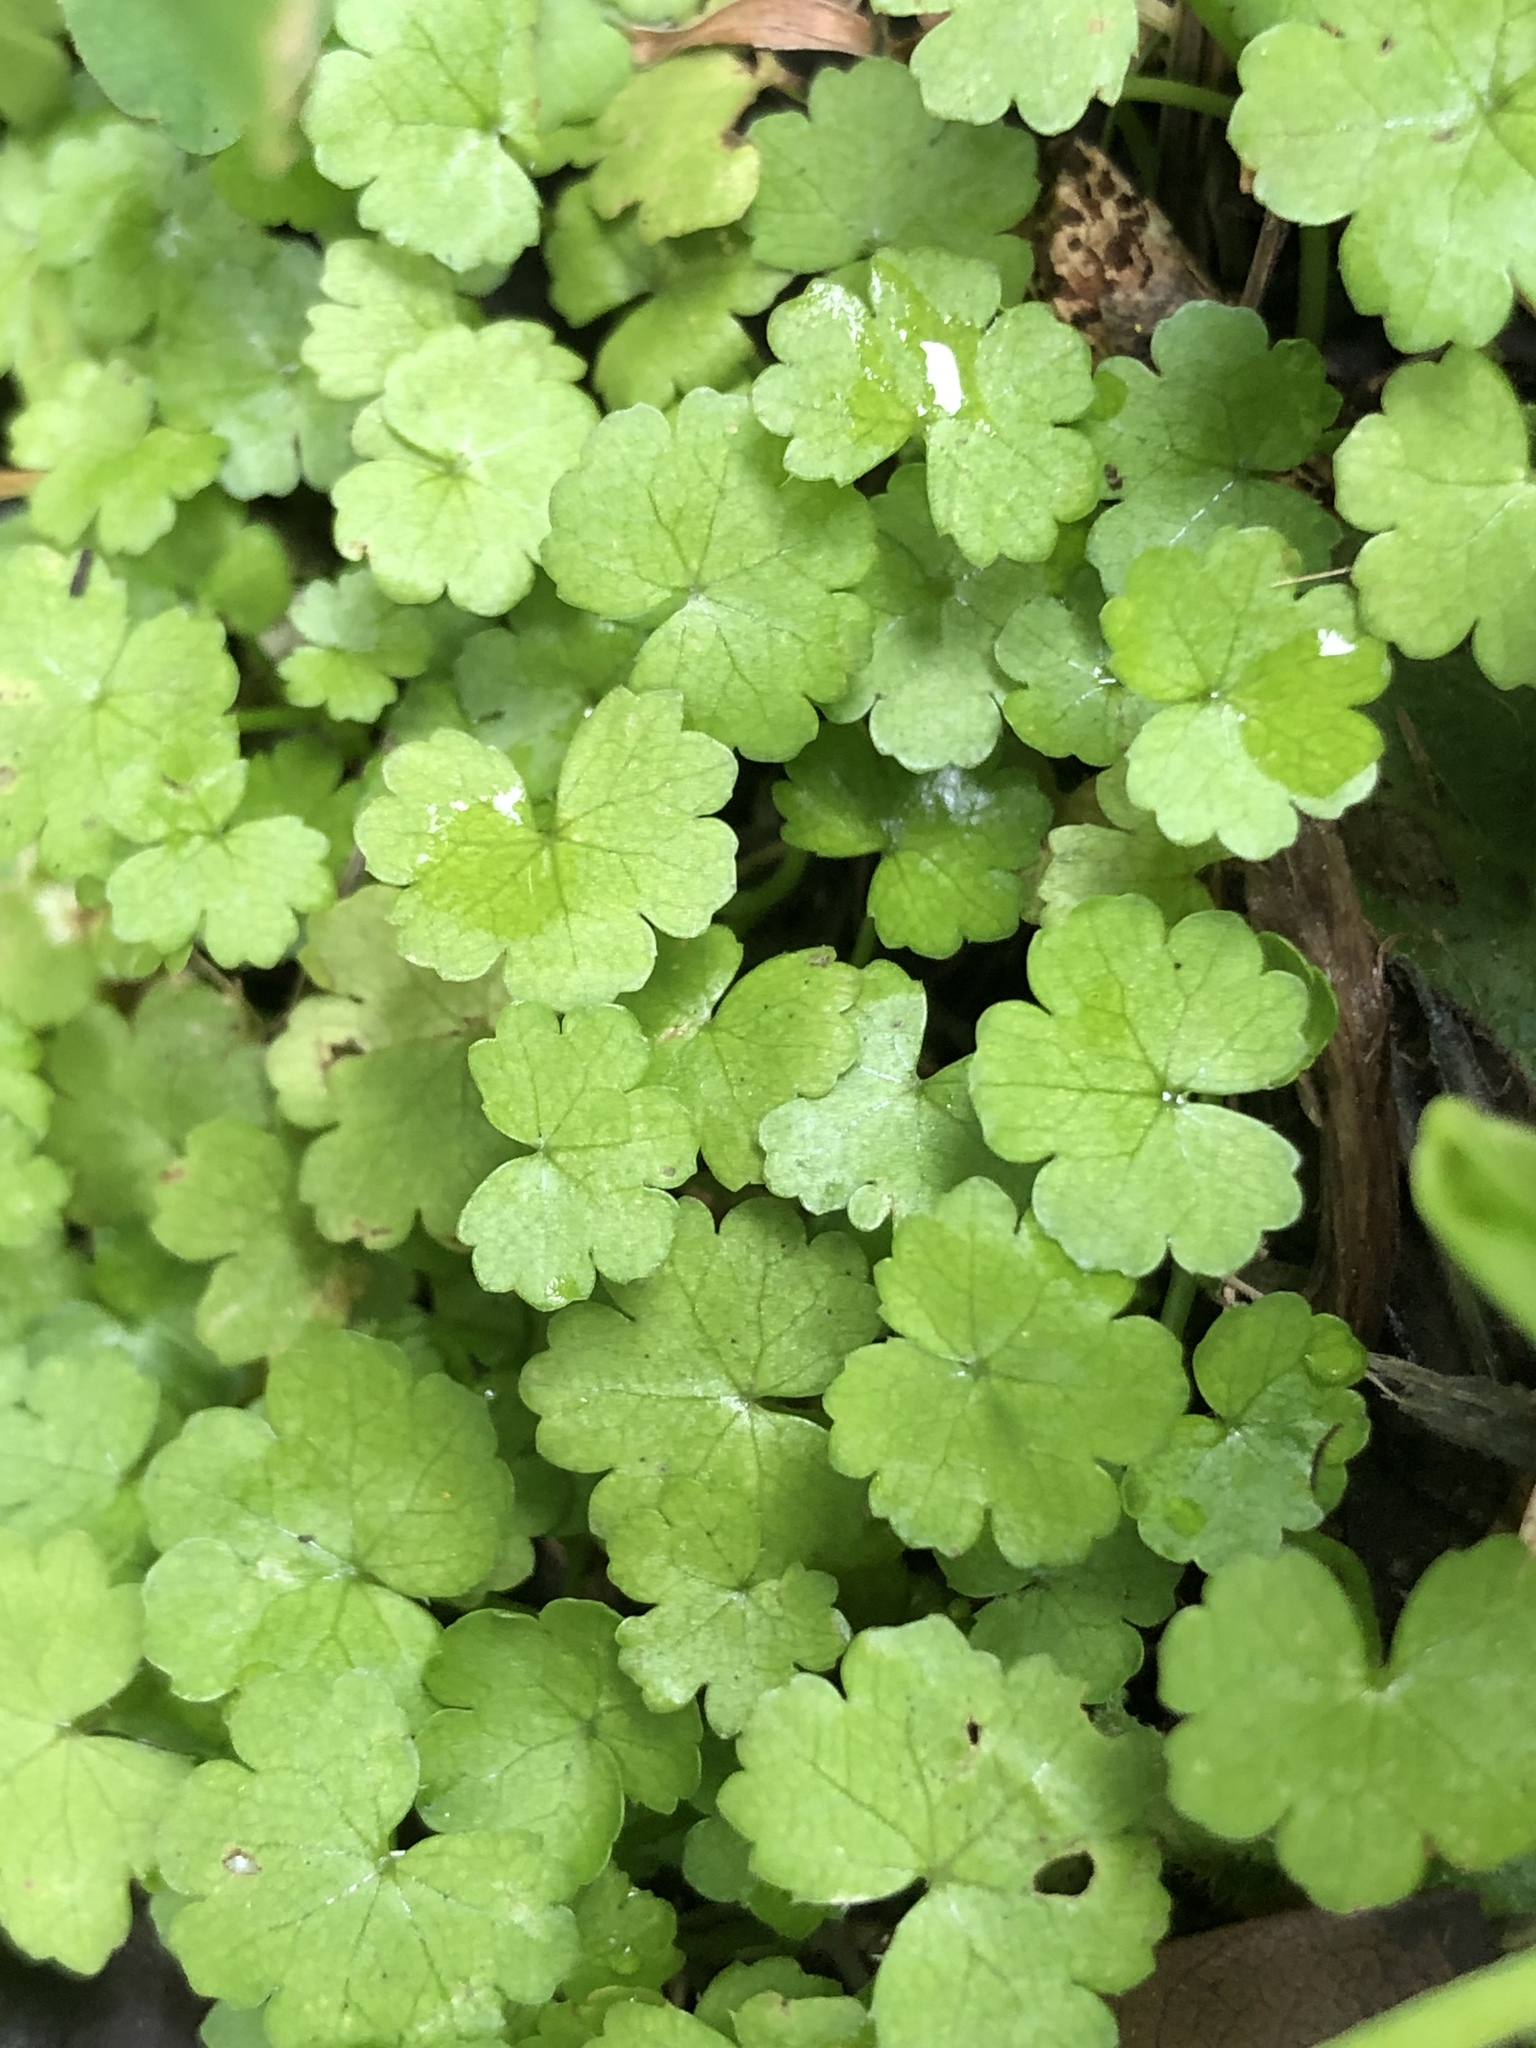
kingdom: Plantae
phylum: Tracheophyta
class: Magnoliopsida
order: Apiales
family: Araliaceae
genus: Hydrocotyle
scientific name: Hydrocotyle heteromeria
